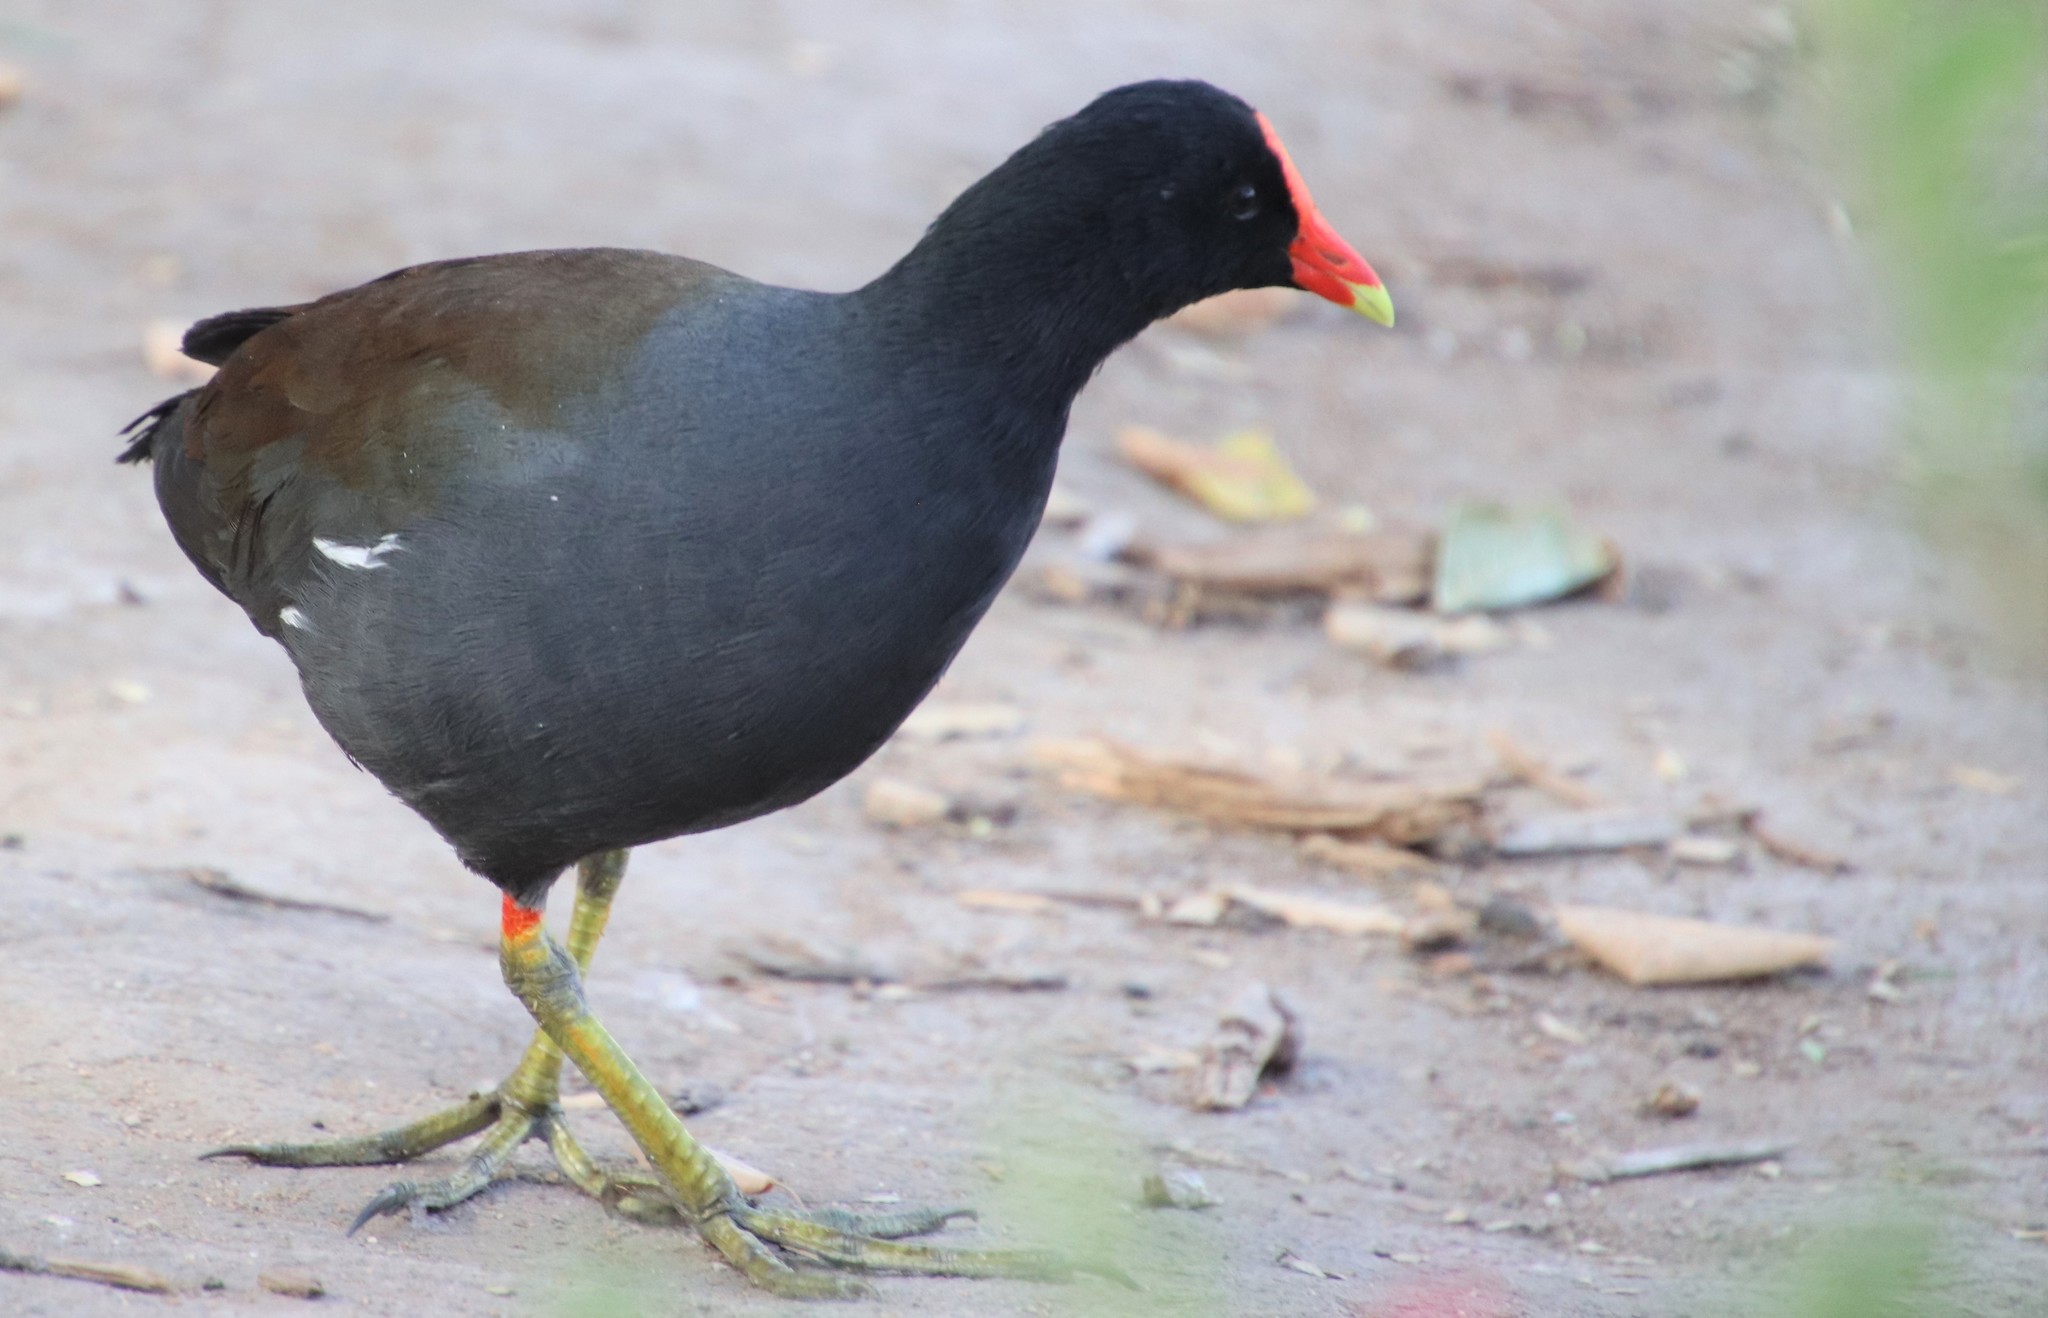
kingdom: Animalia
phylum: Chordata
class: Aves
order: Gruiformes
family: Rallidae
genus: Gallinula
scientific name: Gallinula chloropus
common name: Common moorhen
